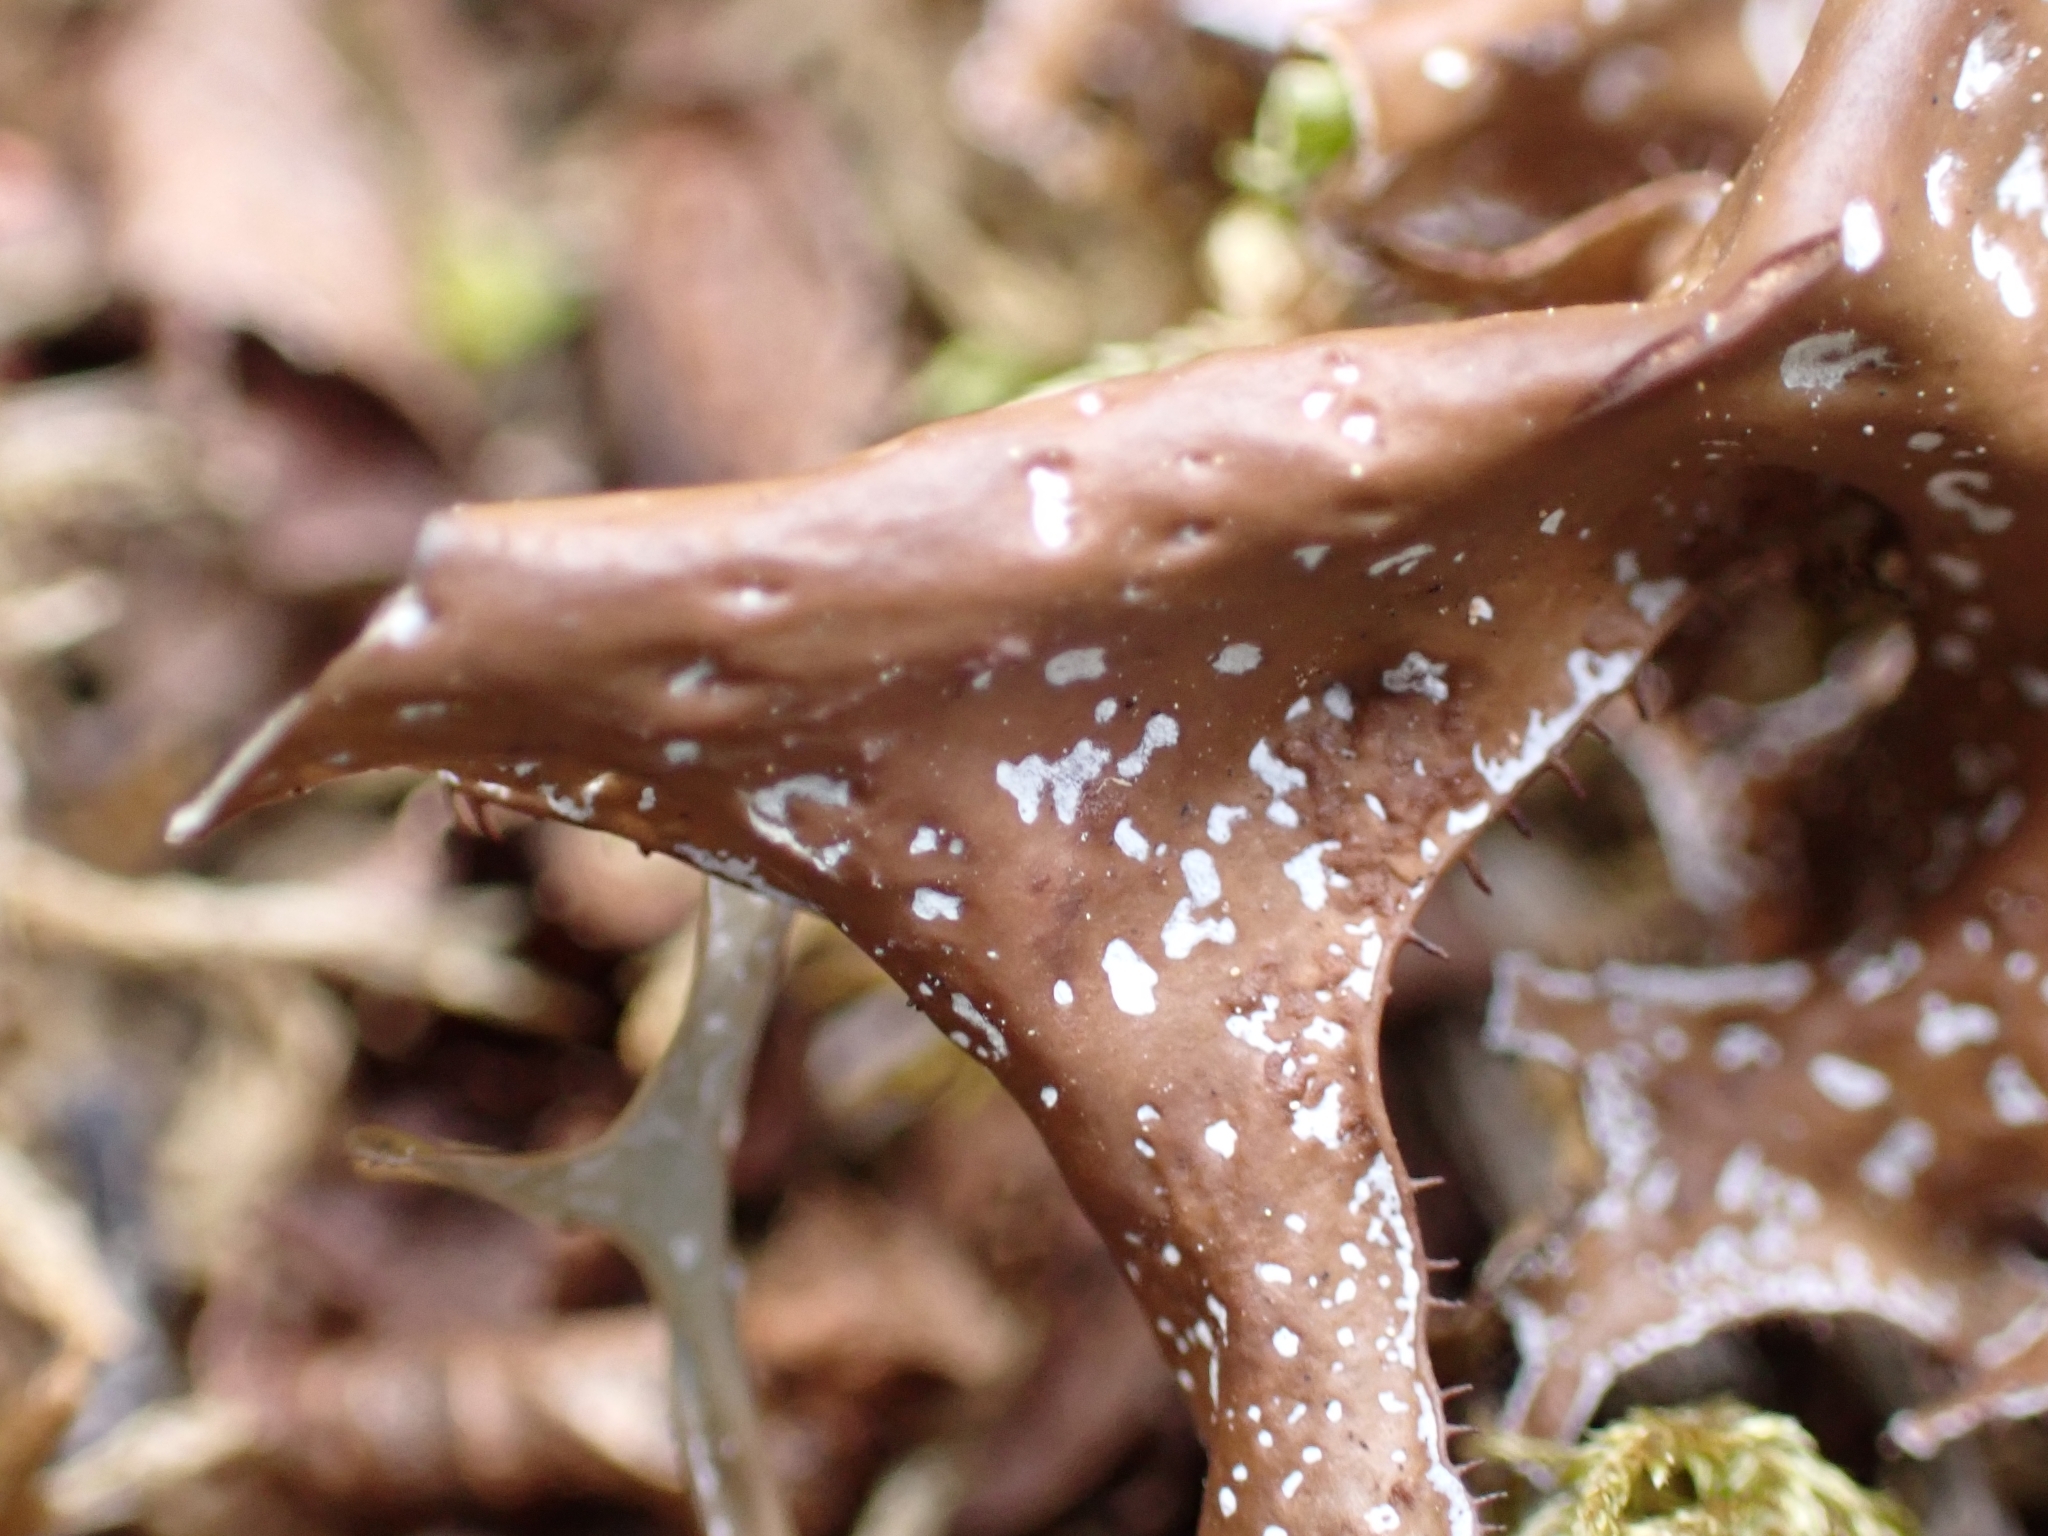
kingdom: Fungi
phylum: Ascomycota
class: Lecanoromycetes
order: Lecanorales
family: Parmeliaceae
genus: Cetraria
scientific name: Cetraria islandica
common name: Iceland lichen
